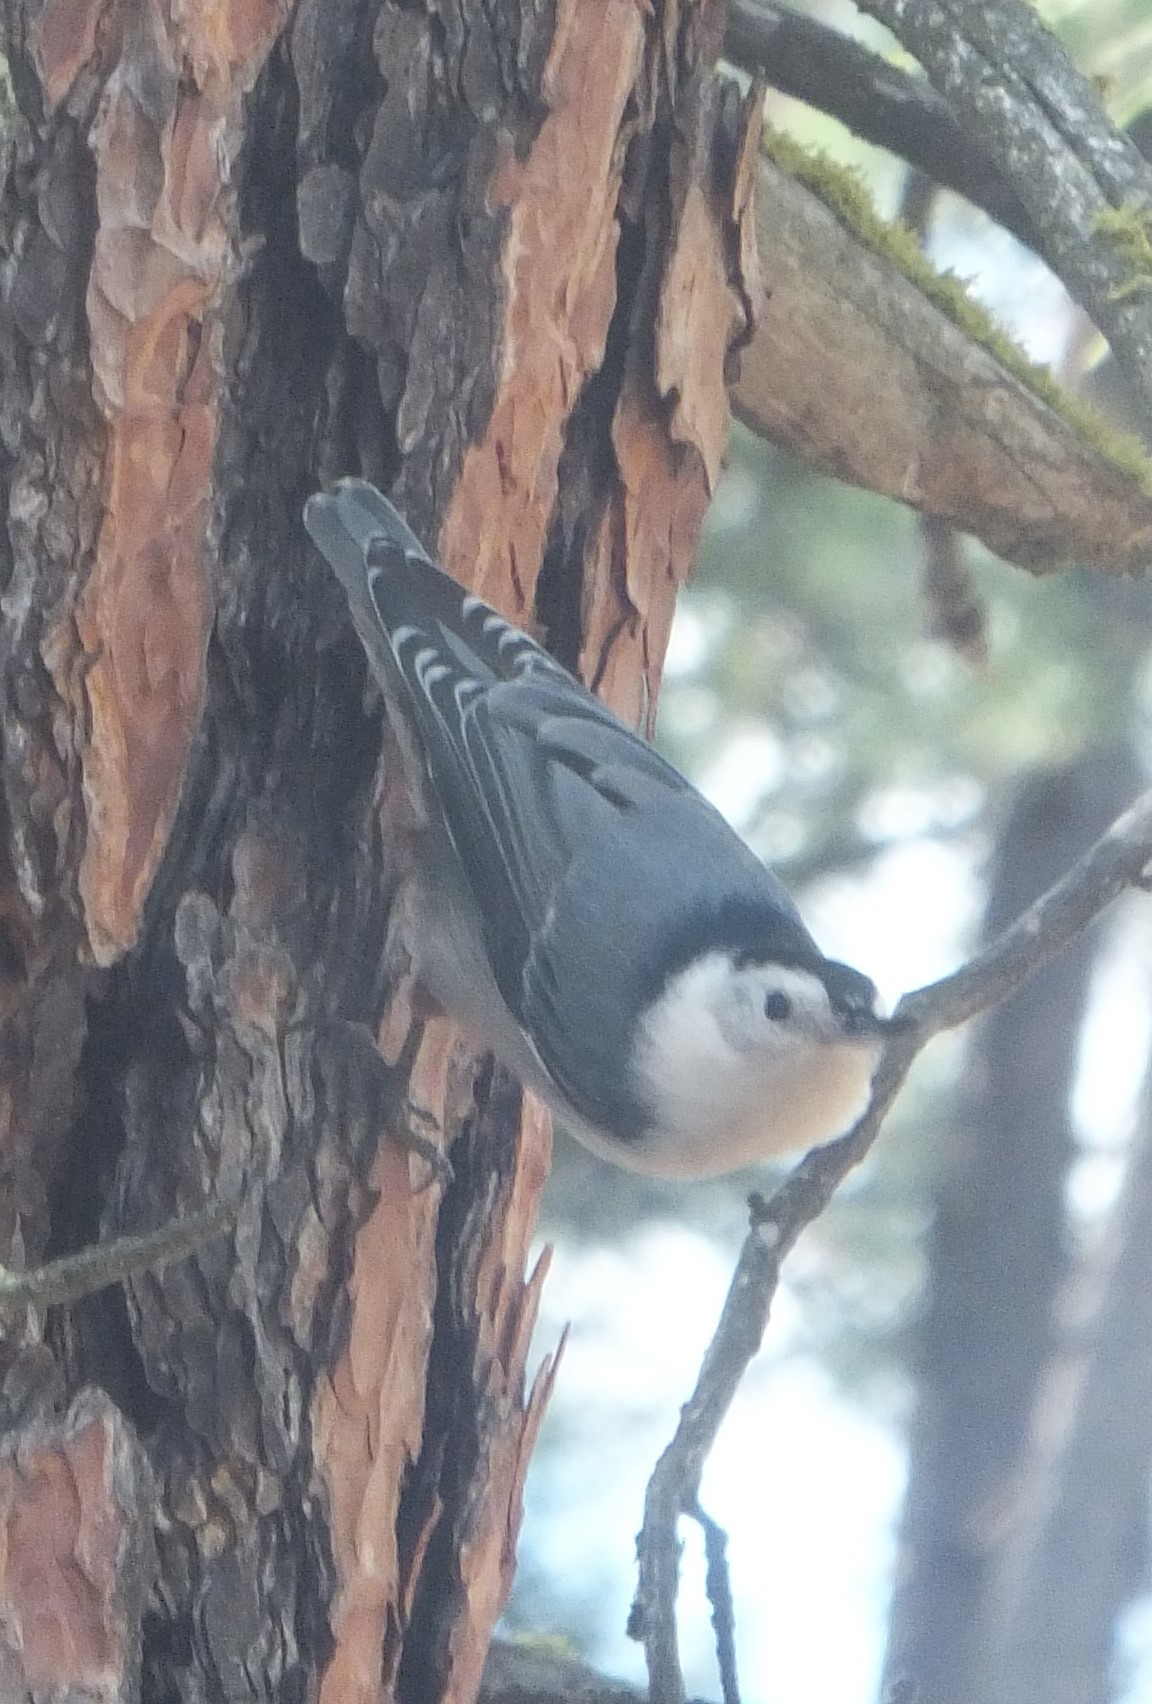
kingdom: Animalia
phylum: Chordata
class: Aves
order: Passeriformes
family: Sittidae
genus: Sitta
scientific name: Sitta carolinensis
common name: White-breasted nuthatch
